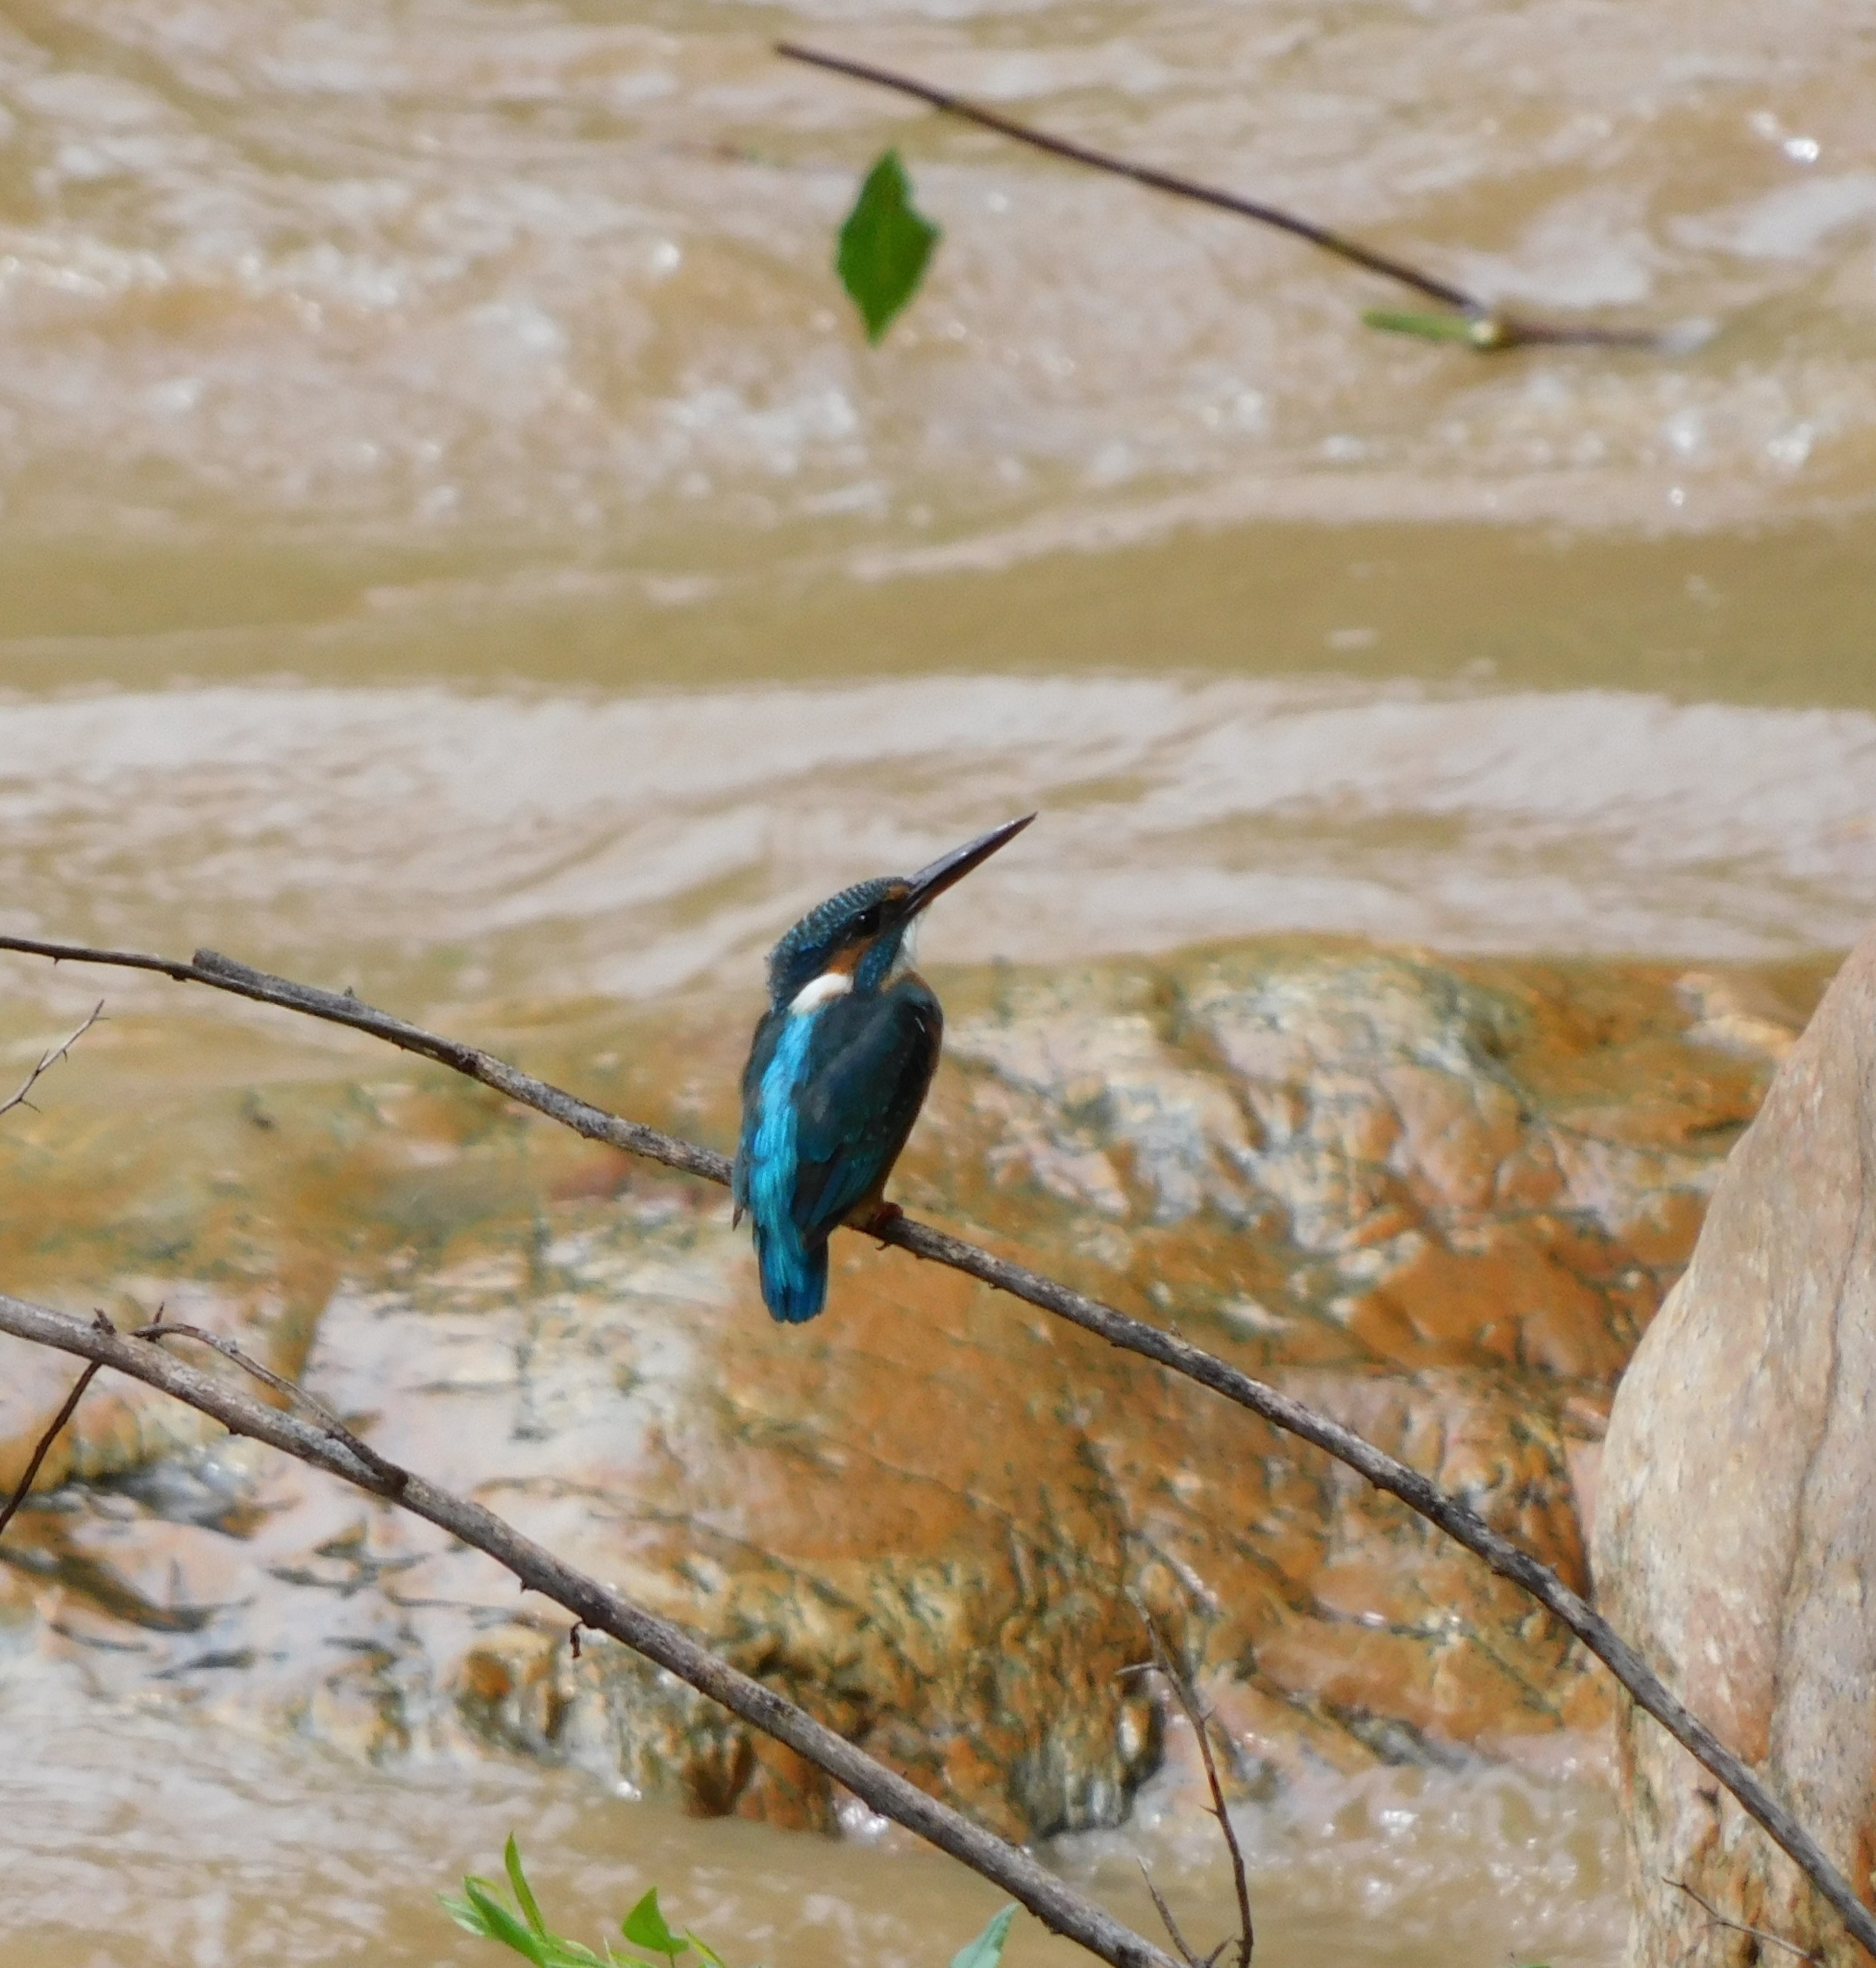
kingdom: Animalia
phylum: Chordata
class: Aves
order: Coraciiformes
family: Alcedinidae
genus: Alcedo
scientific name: Alcedo atthis
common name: Common kingfisher
